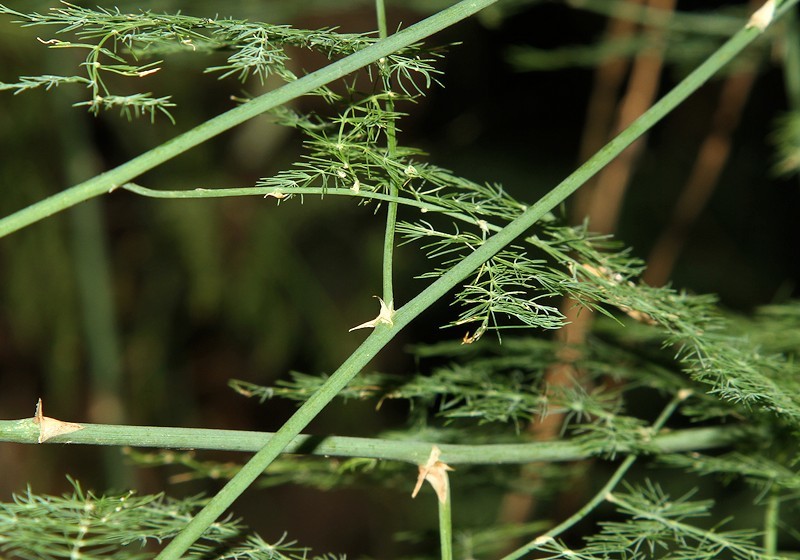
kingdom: Plantae
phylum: Tracheophyta
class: Liliopsida
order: Asparagales
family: Asparagaceae
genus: Asparagus
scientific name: Asparagus setaceus
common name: Common asparagus fern
